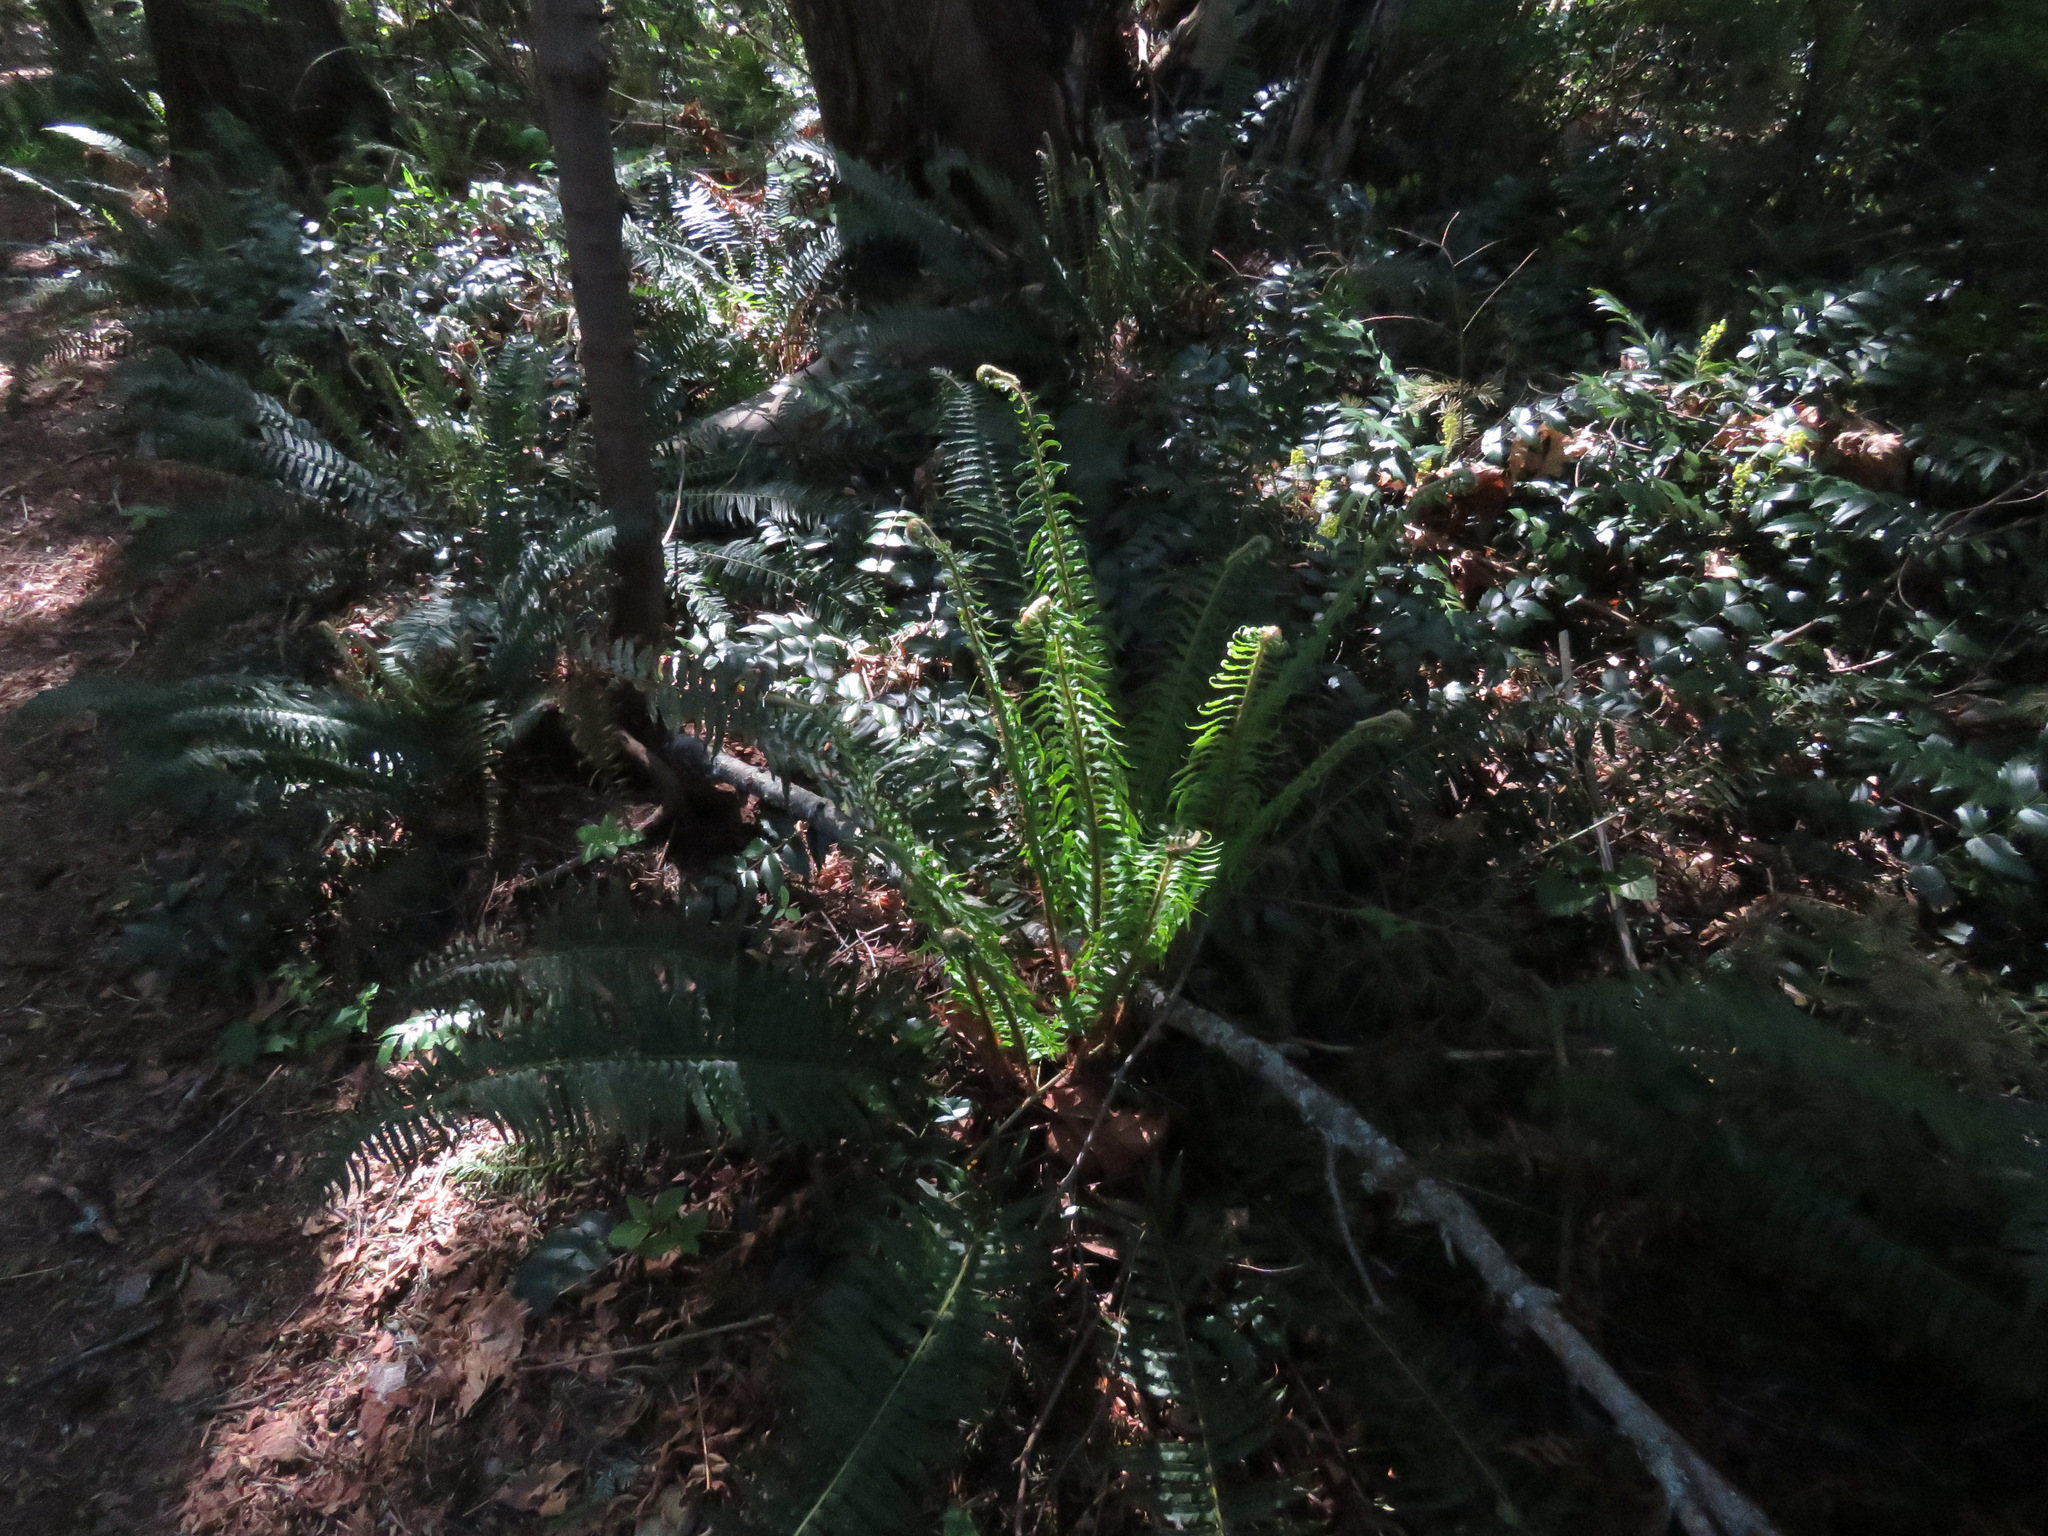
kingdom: Plantae
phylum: Tracheophyta
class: Polypodiopsida
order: Polypodiales
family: Dryopteridaceae
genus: Polystichum
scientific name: Polystichum munitum
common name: Western sword-fern
